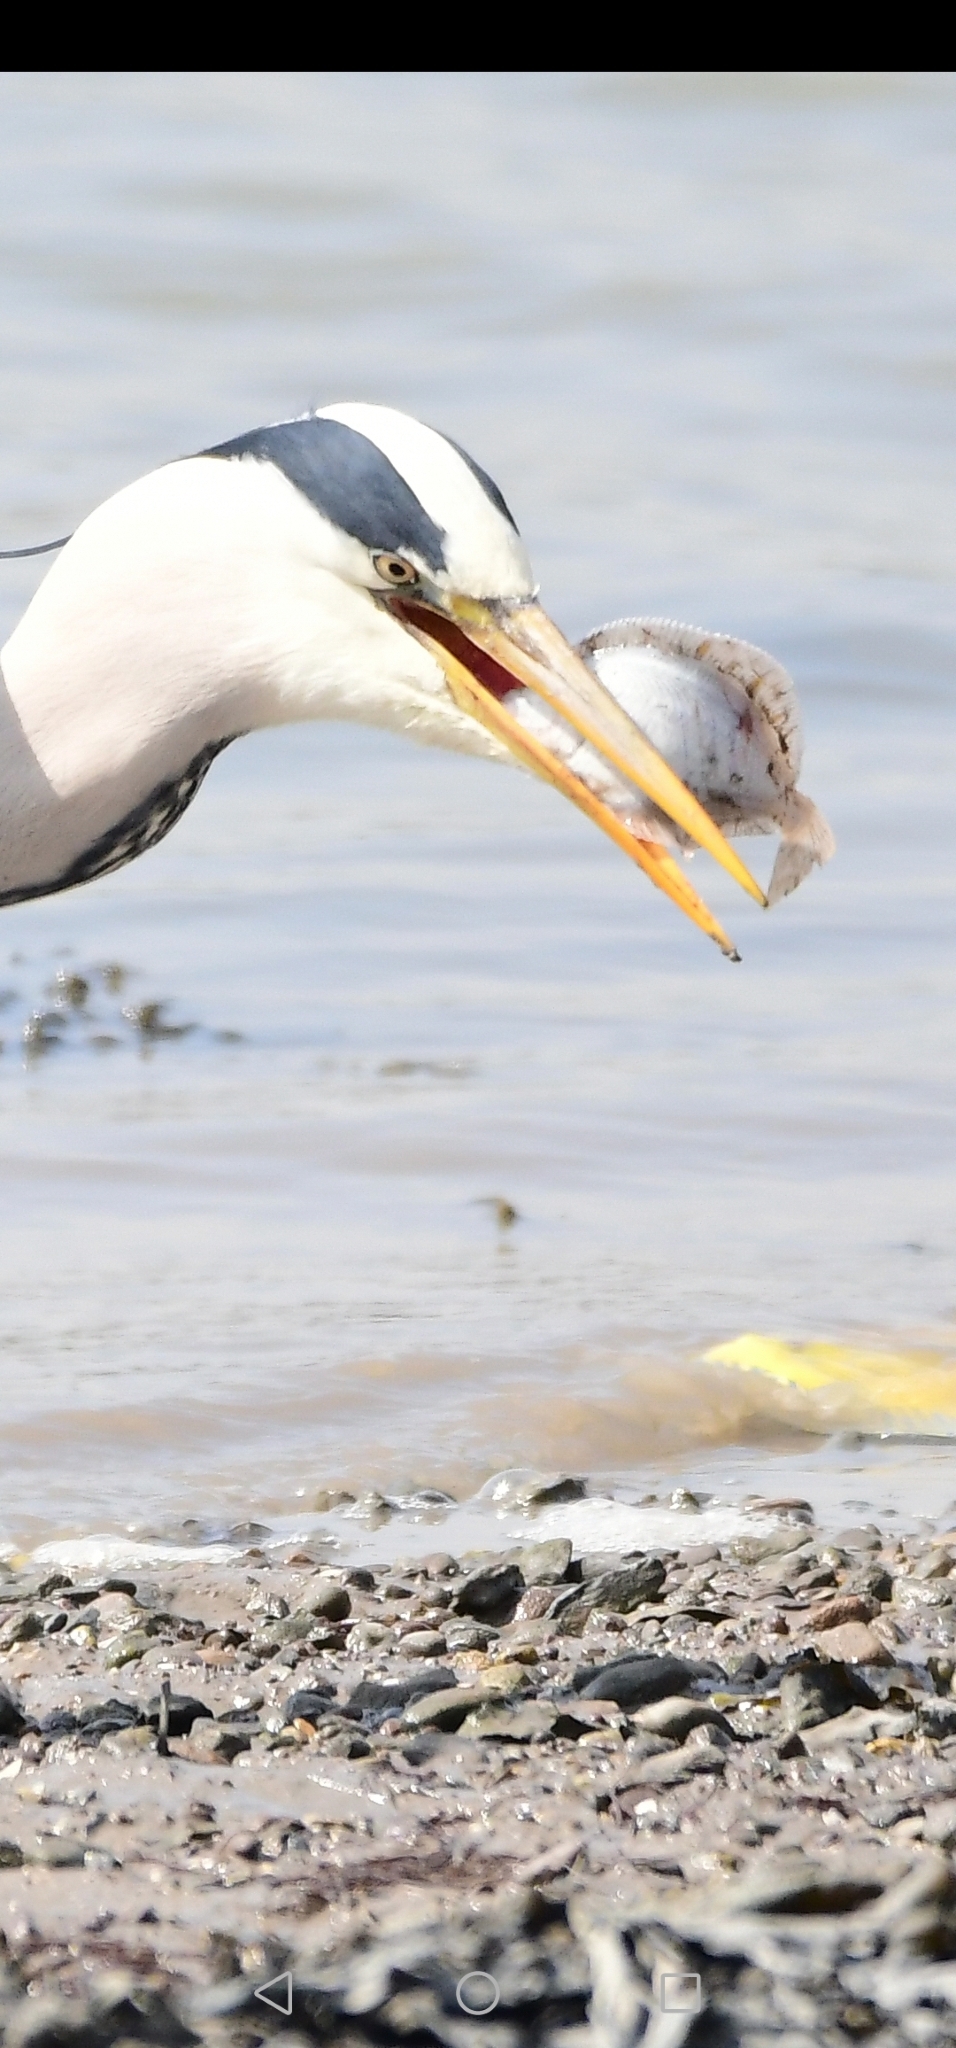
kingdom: Animalia
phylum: Chordata
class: Aves
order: Pelecaniformes
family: Ardeidae
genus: Ardea
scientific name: Ardea cinerea
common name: Grey heron
